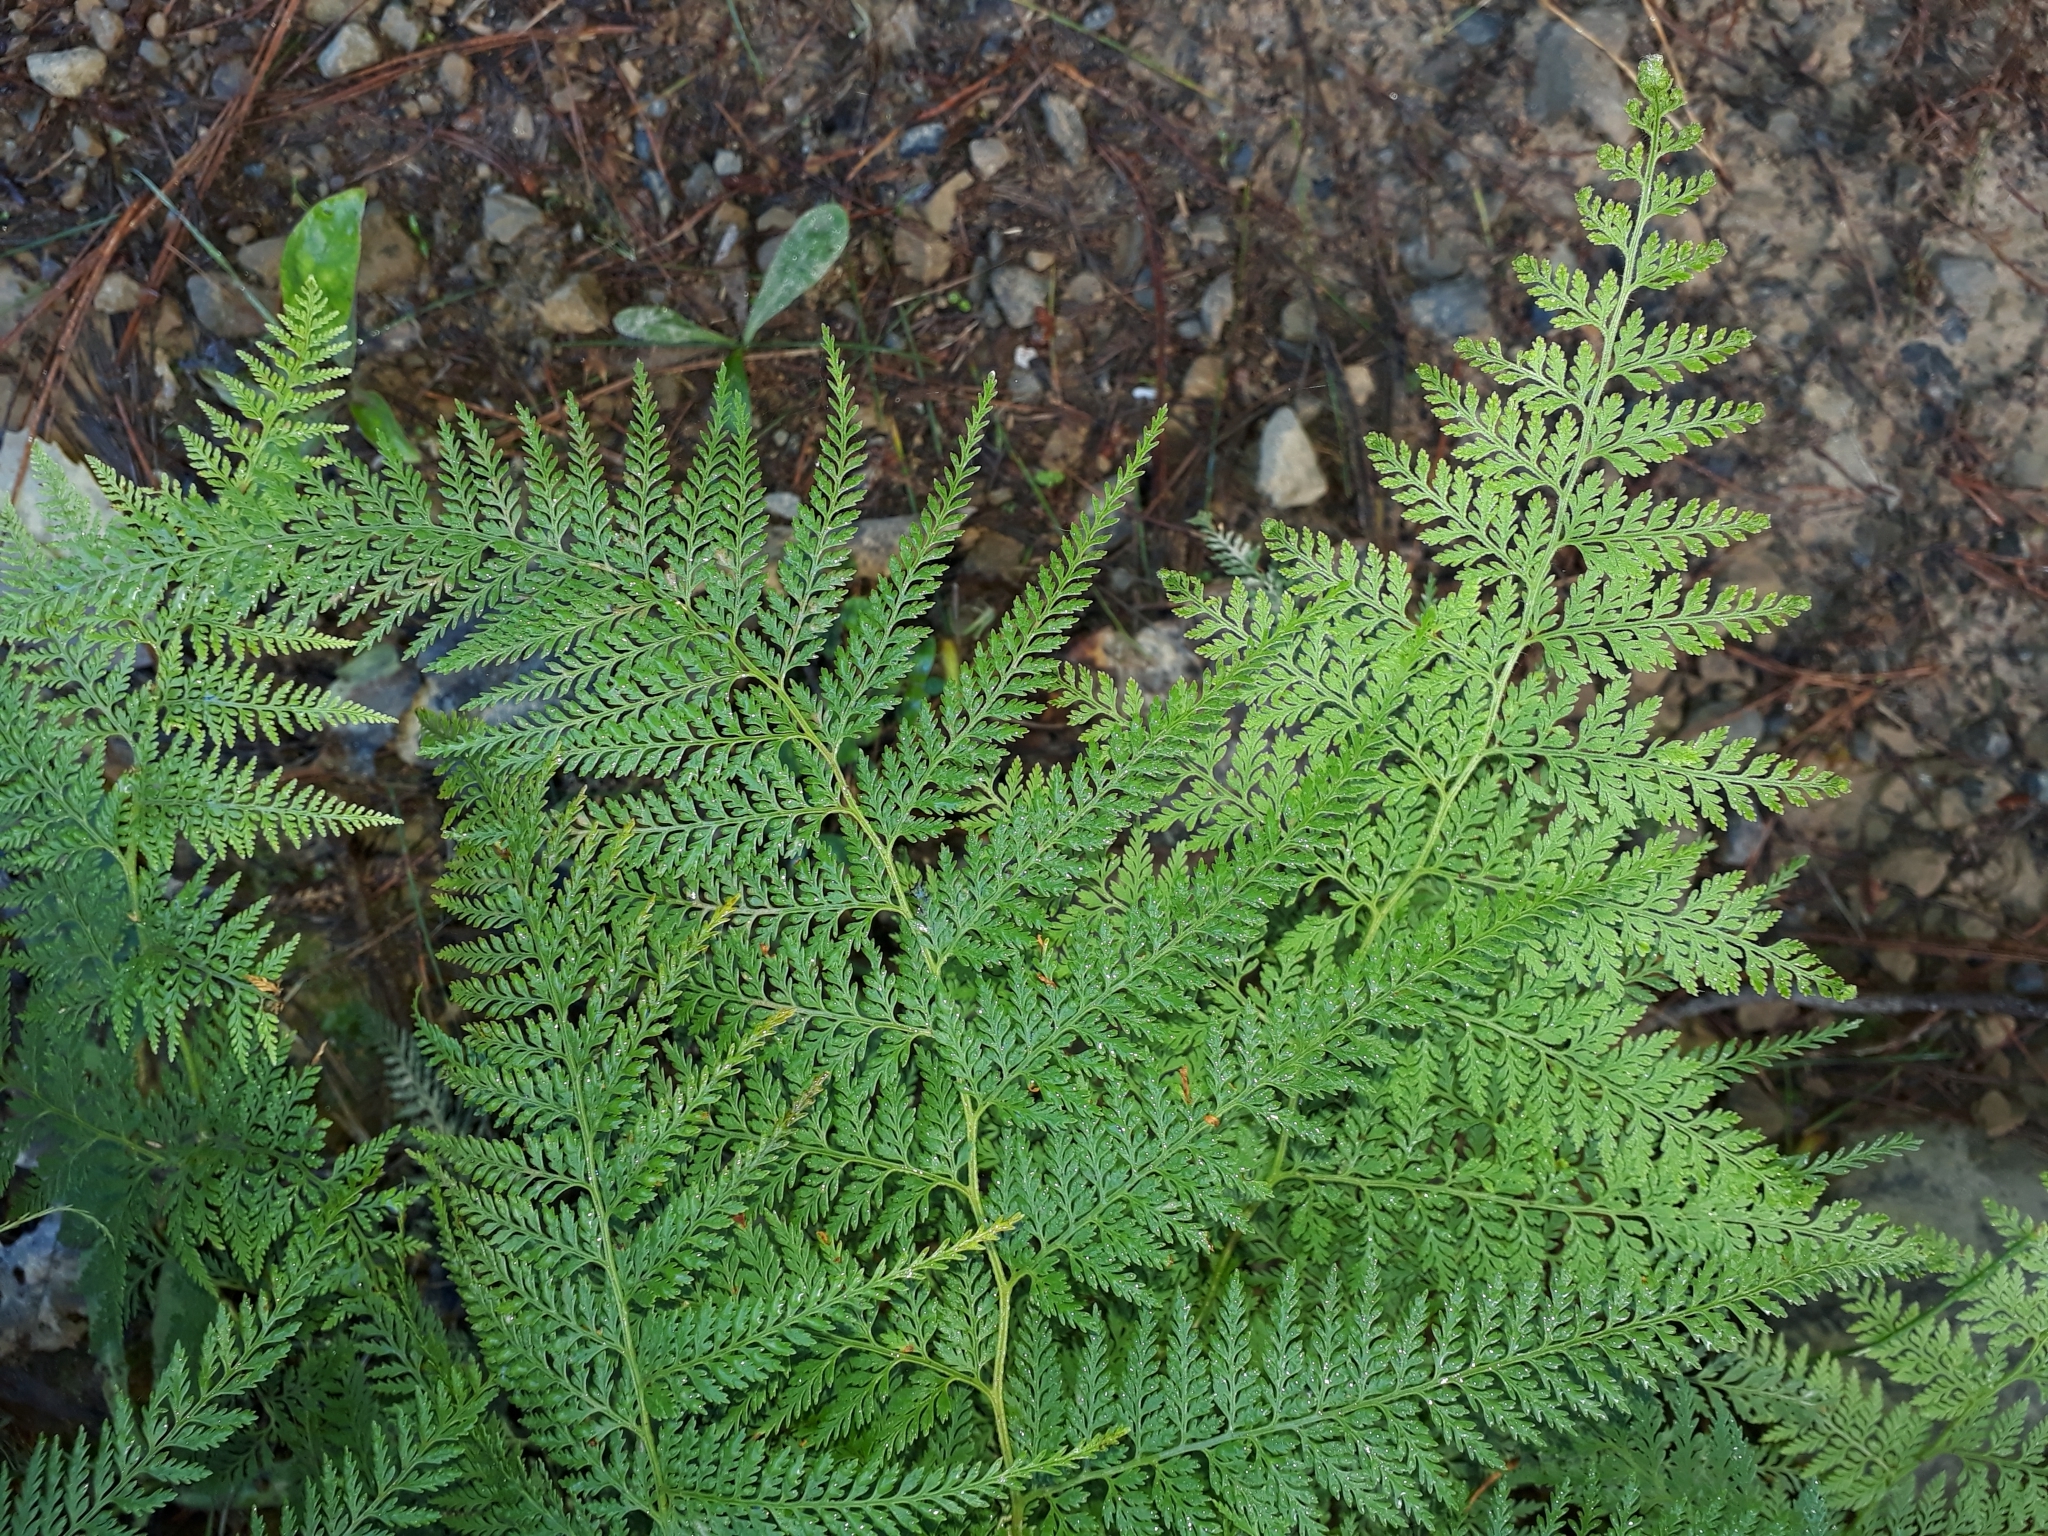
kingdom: Plantae
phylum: Tracheophyta
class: Polypodiopsida
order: Polypodiales
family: Dennstaedtiaceae
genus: Paesia
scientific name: Paesia scaberula
